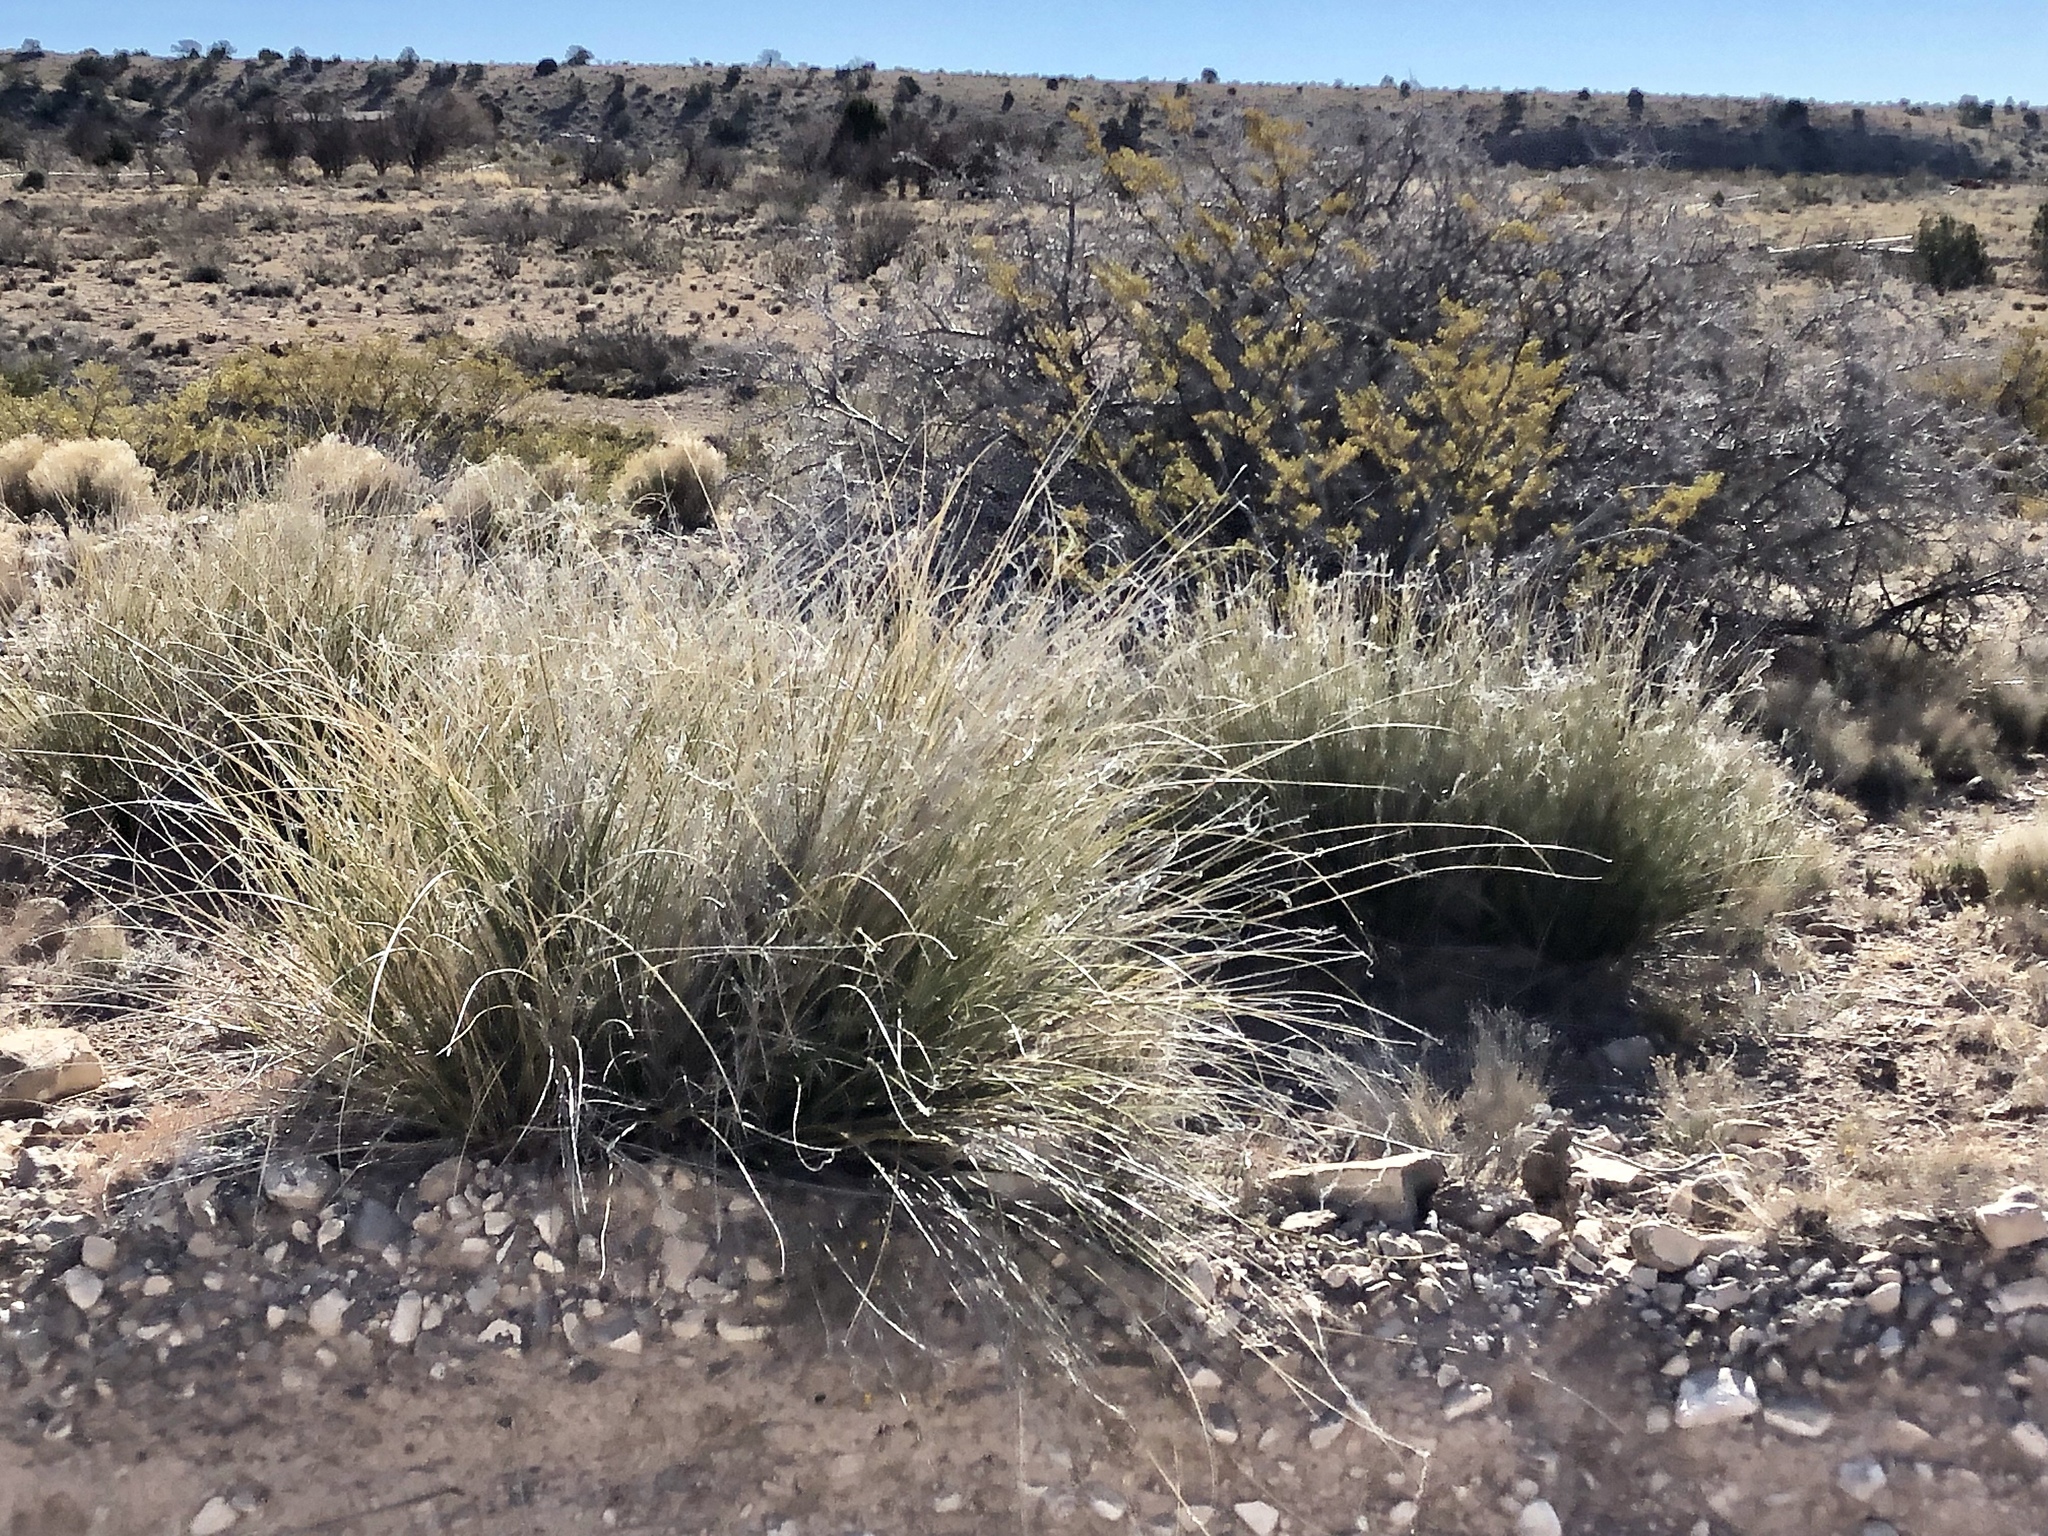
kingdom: Plantae
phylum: Tracheophyta
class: Liliopsida
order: Asparagales
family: Asparagaceae
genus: Nolina
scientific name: Nolina texana
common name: Texas sacahuiste
